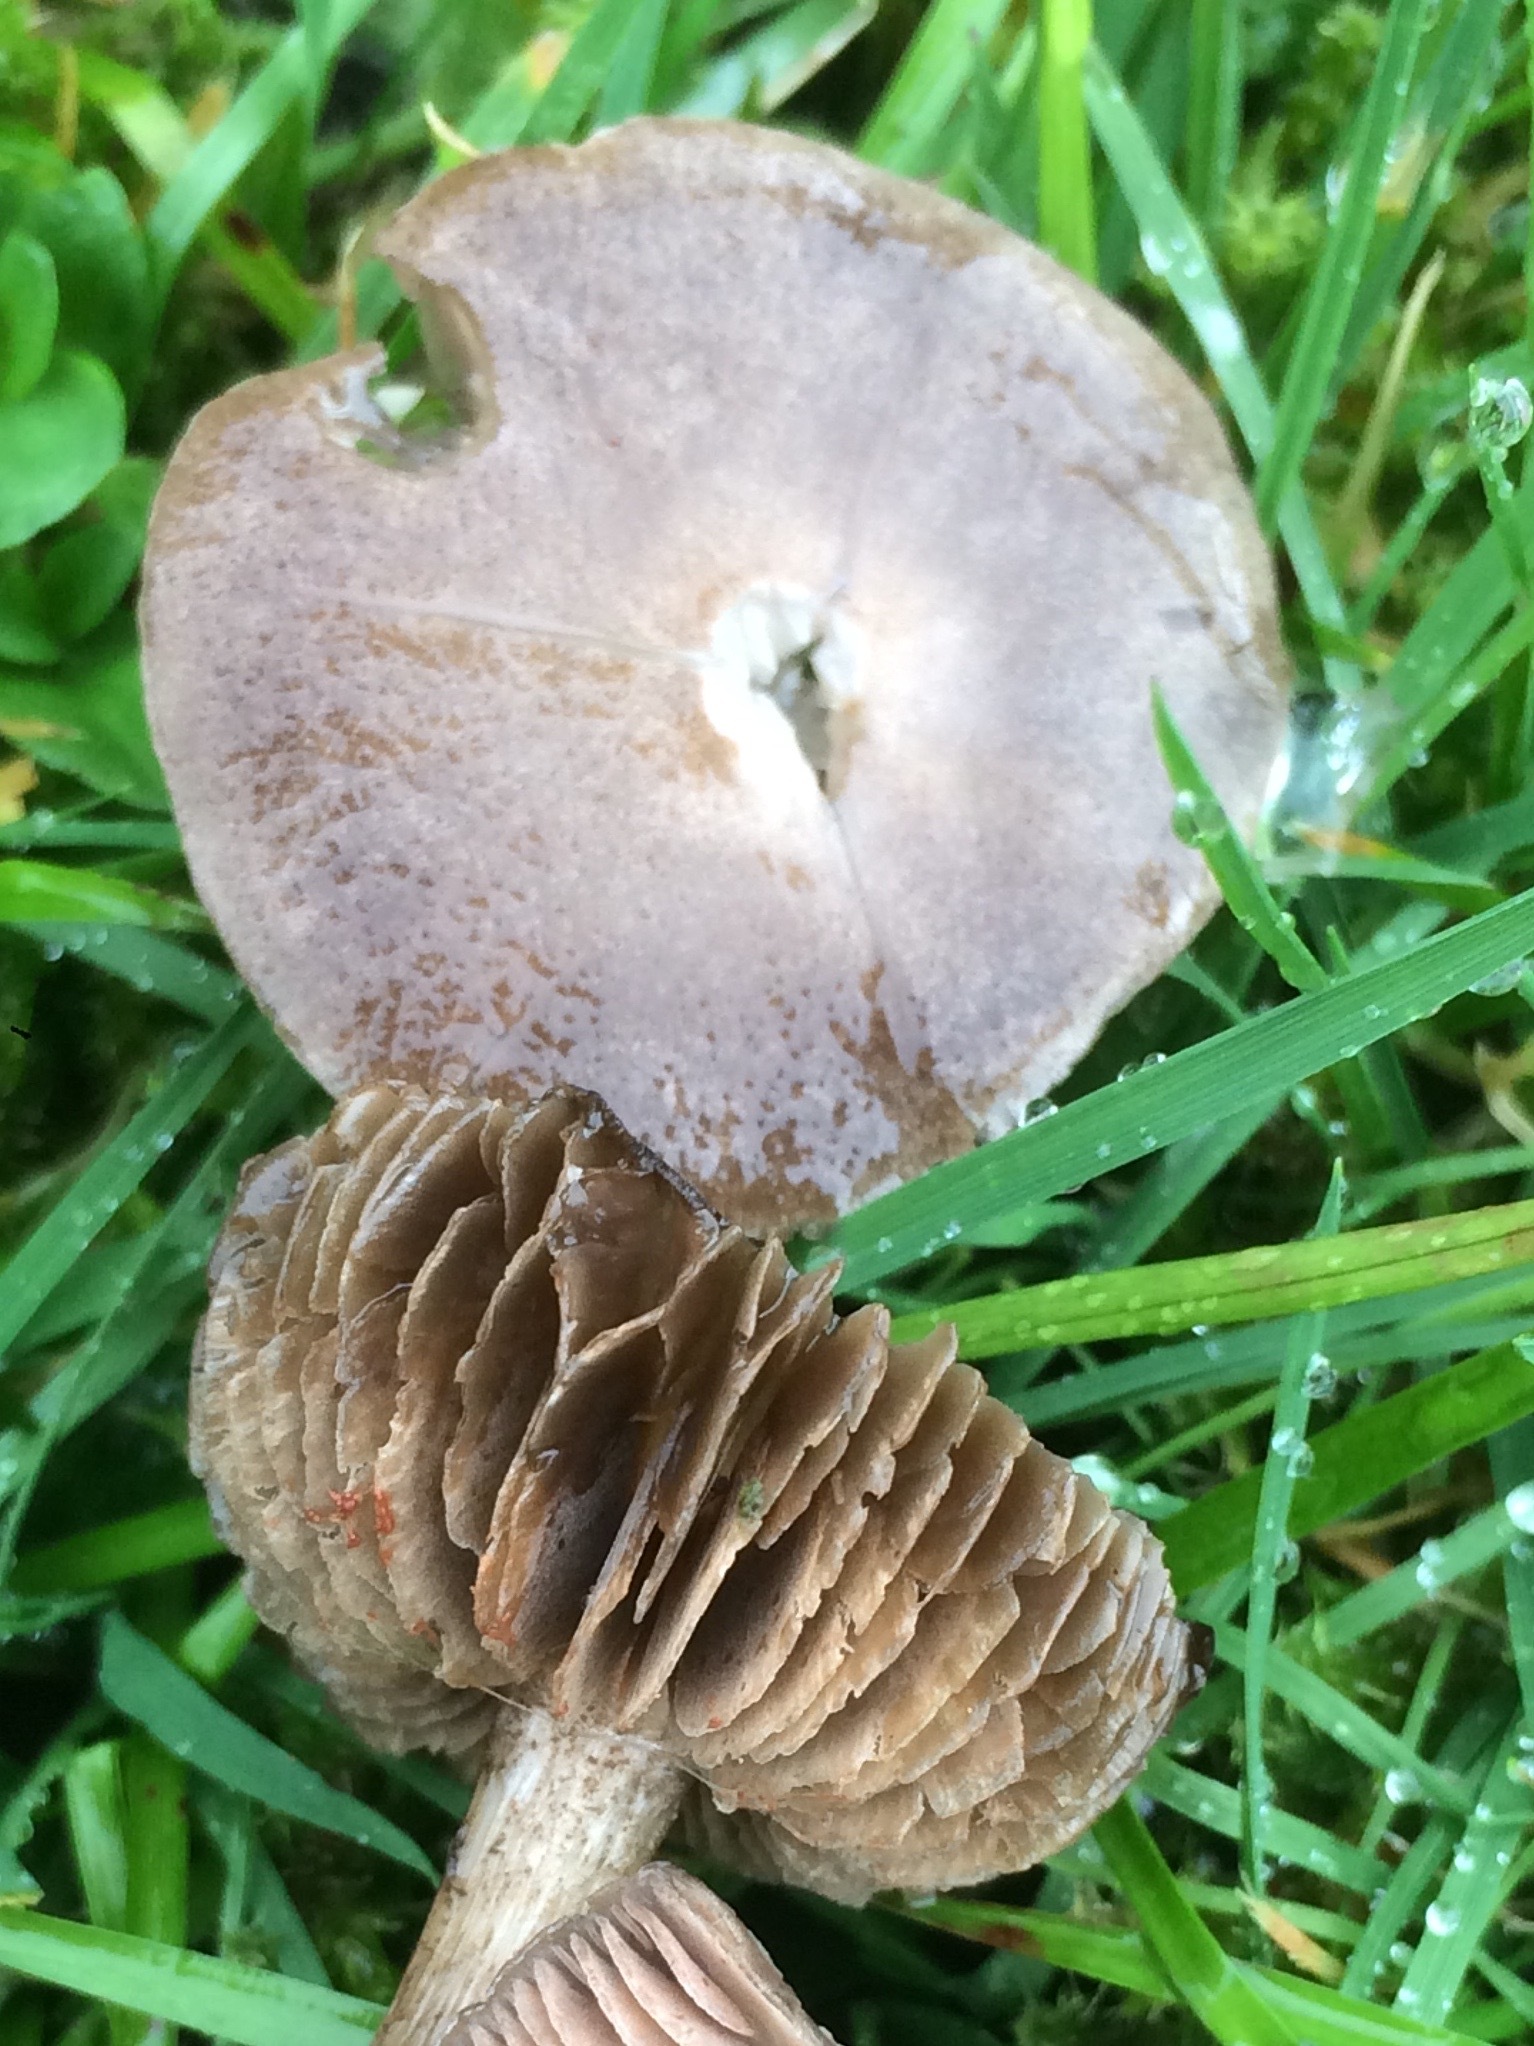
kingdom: Fungi
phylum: Basidiomycota
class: Agaricomycetes
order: Agaricales
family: Entolomataceae
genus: Entoloma
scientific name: Entoloma jubatum
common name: Sepia pinkgill
